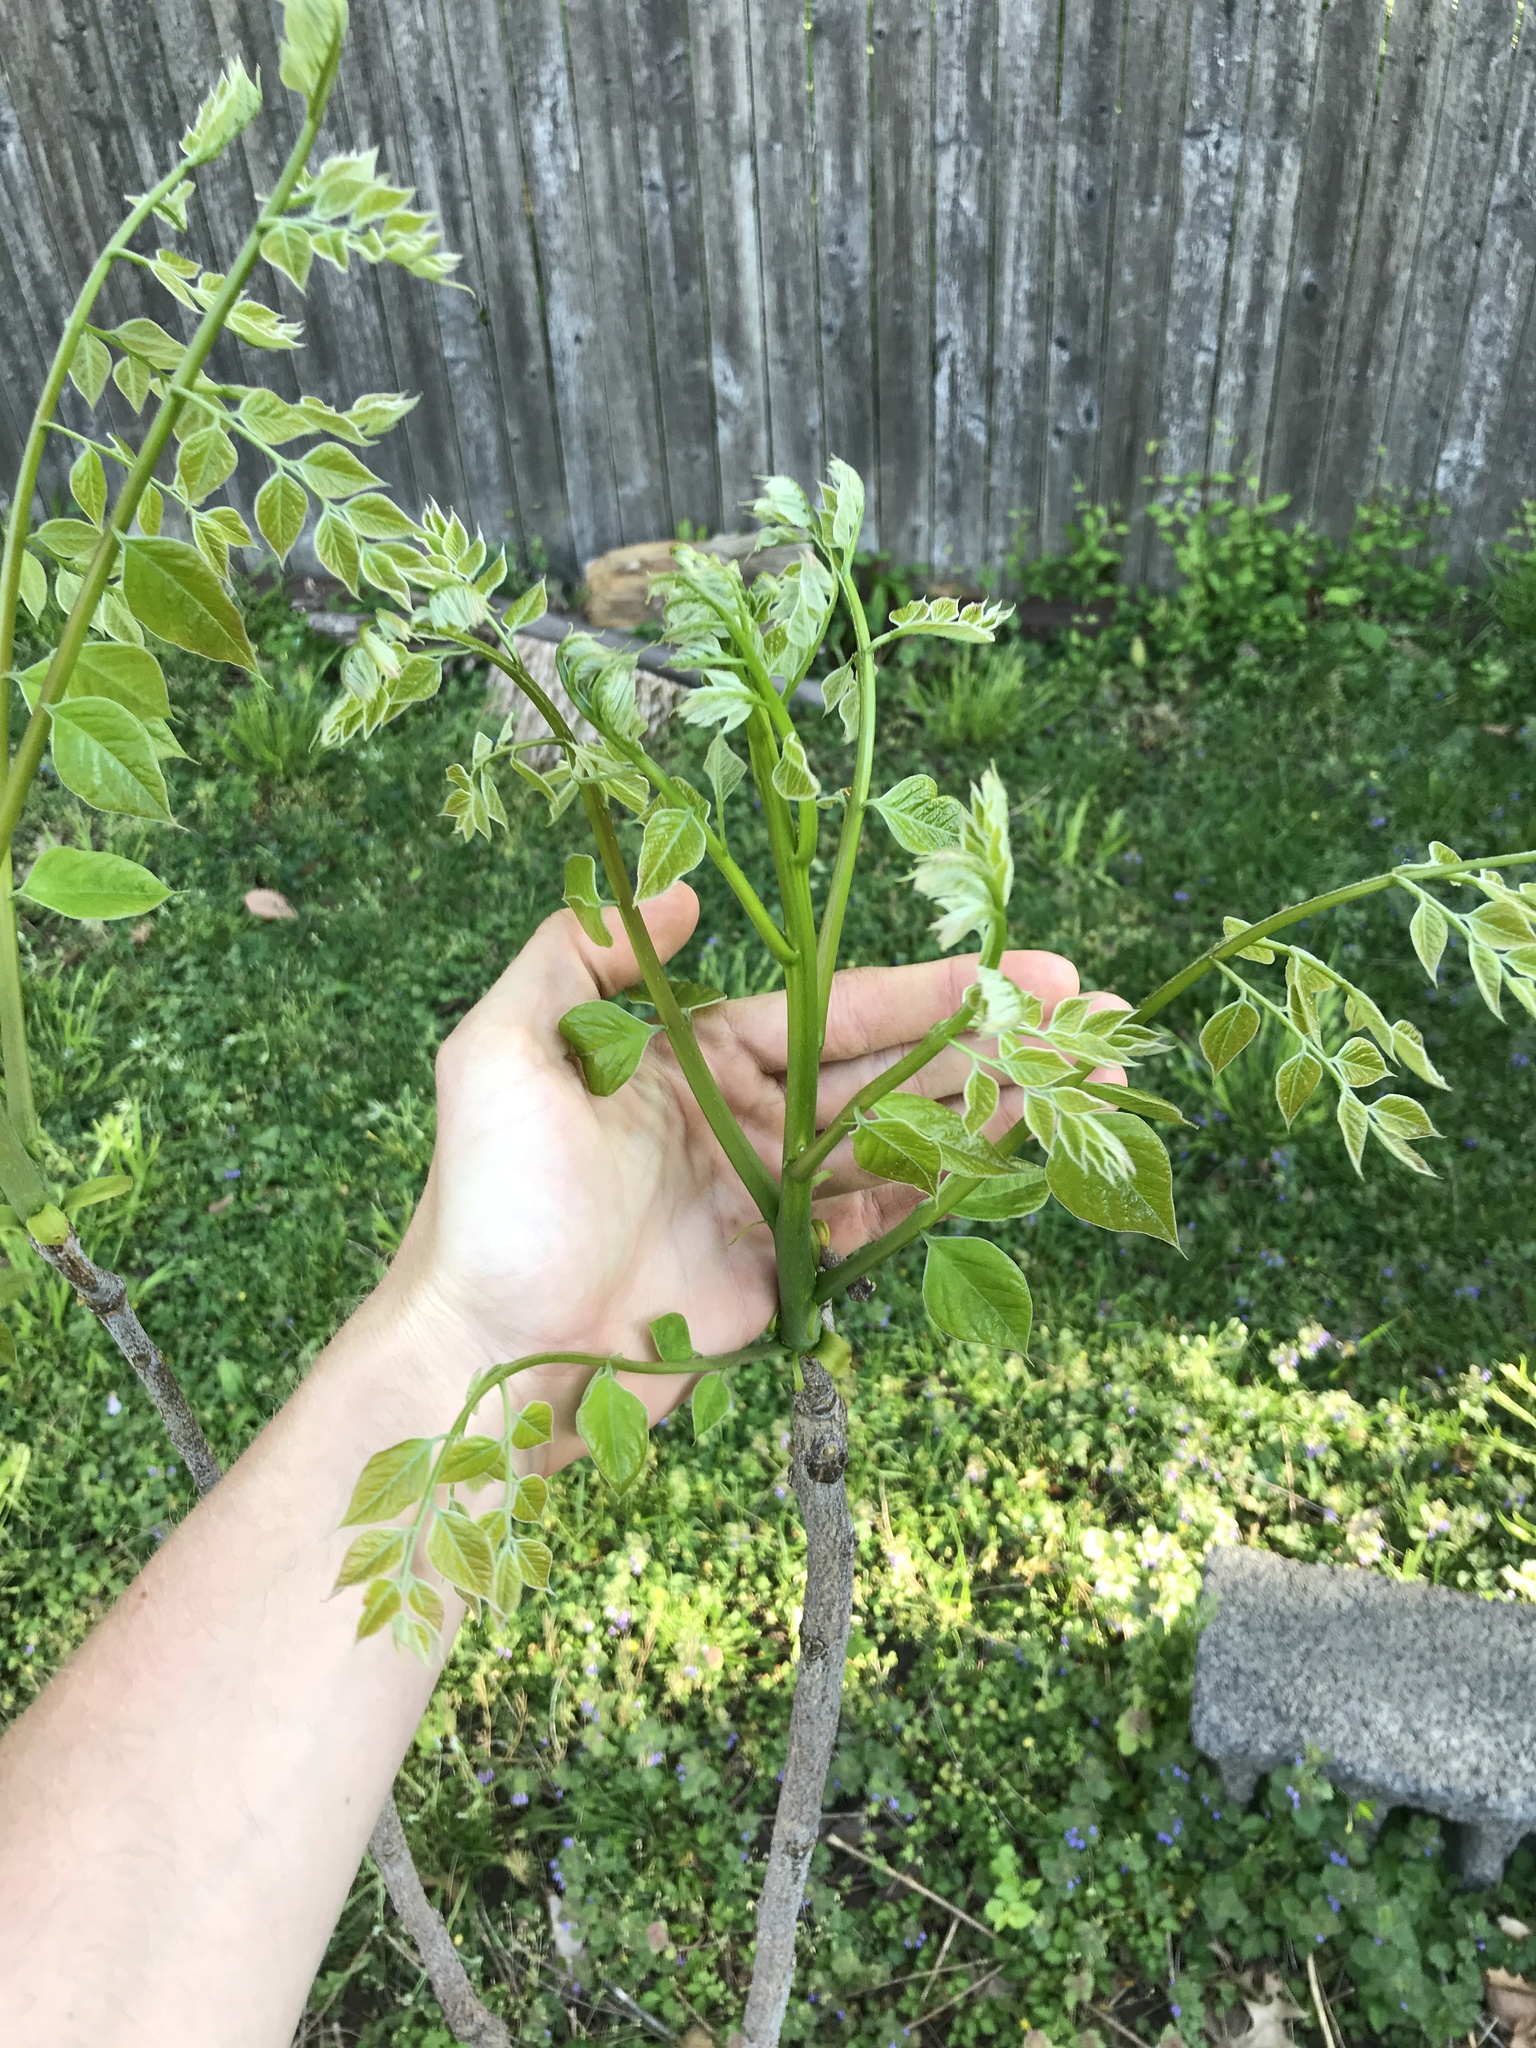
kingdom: Plantae
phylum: Tracheophyta
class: Magnoliopsida
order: Fabales
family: Fabaceae
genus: Gymnocladus
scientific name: Gymnocladus dioicus
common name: Kentucky coffee-tree
